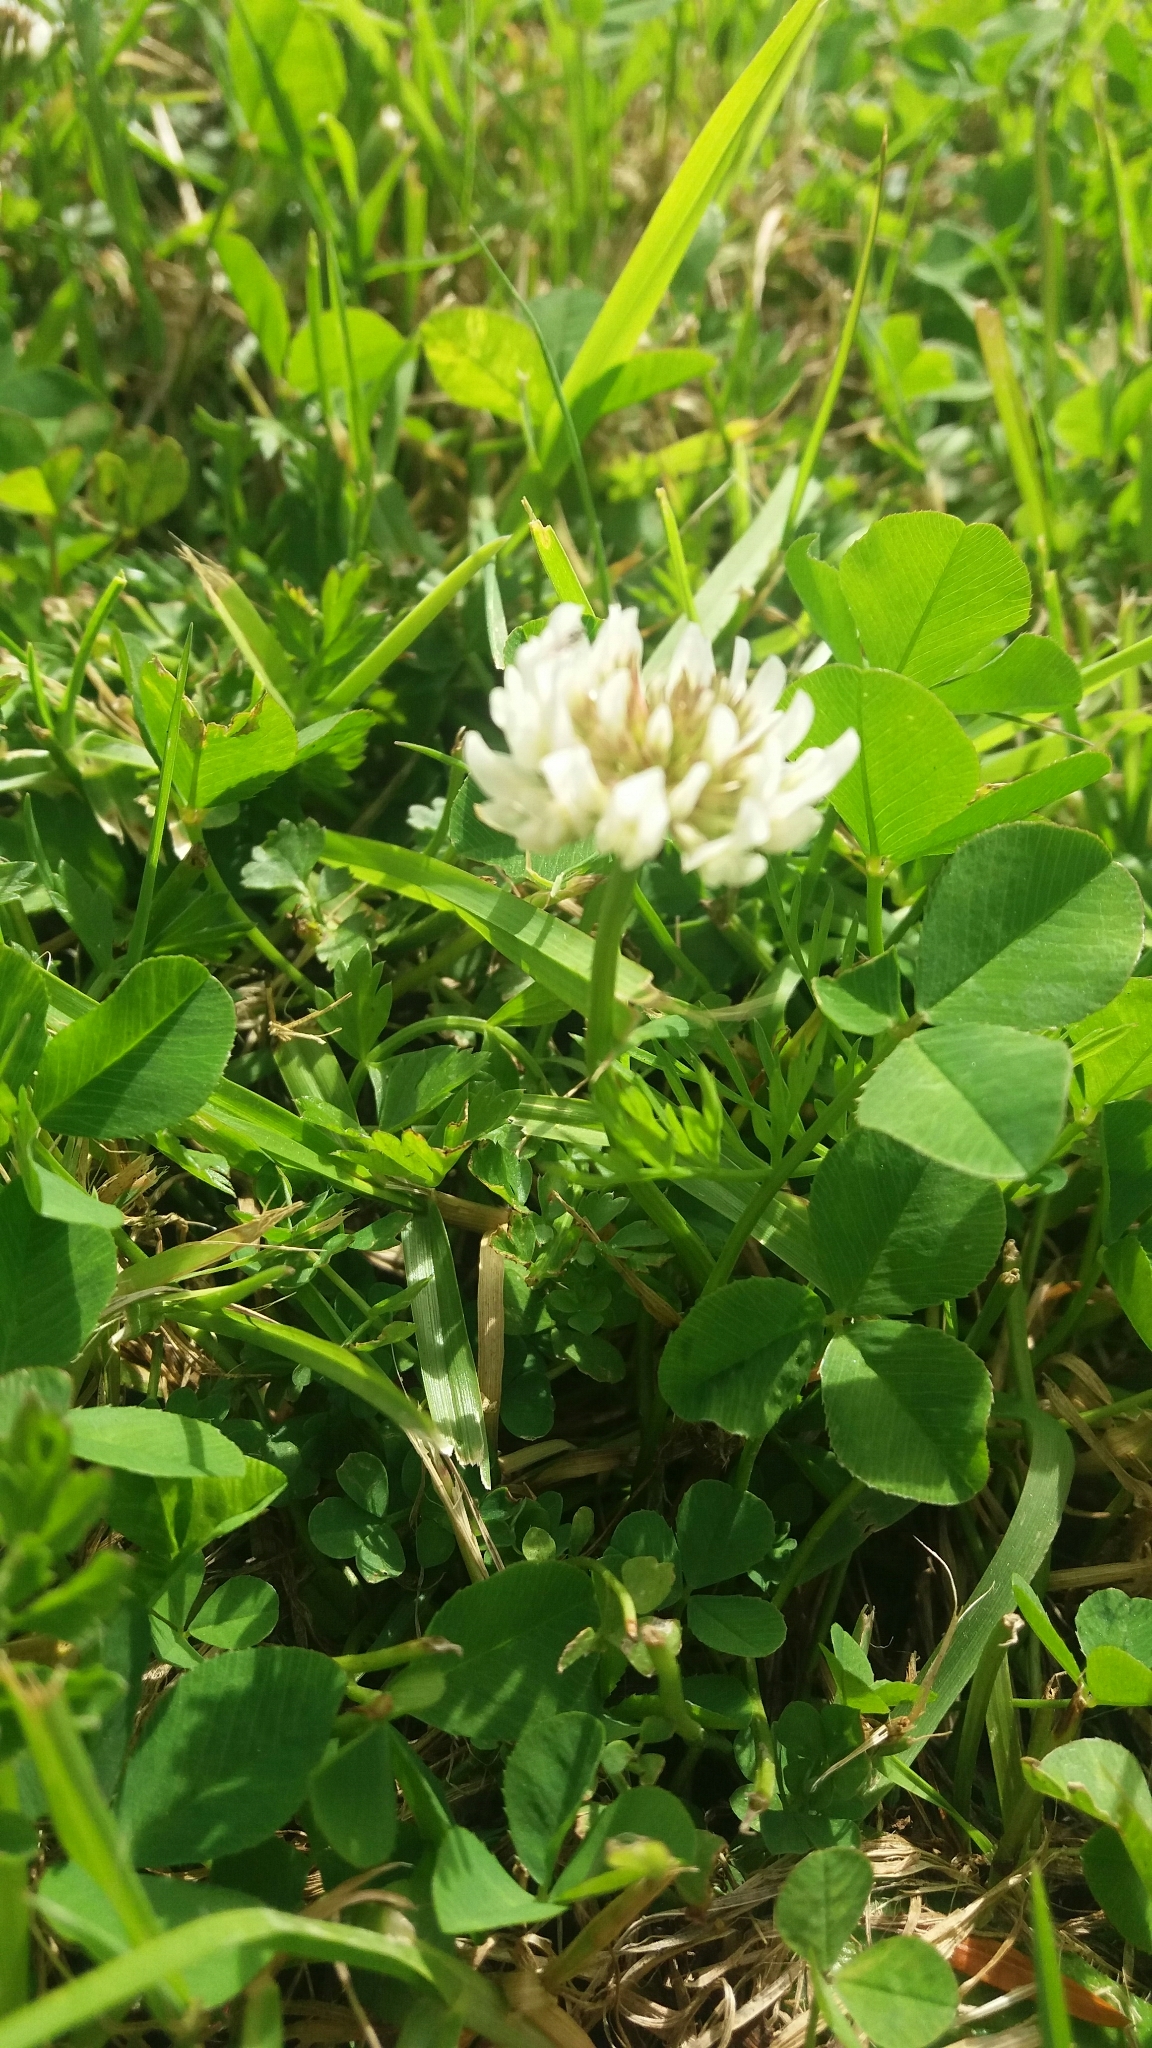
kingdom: Plantae
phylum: Tracheophyta
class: Magnoliopsida
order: Fabales
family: Fabaceae
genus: Trifolium
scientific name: Trifolium repens
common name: White clover
